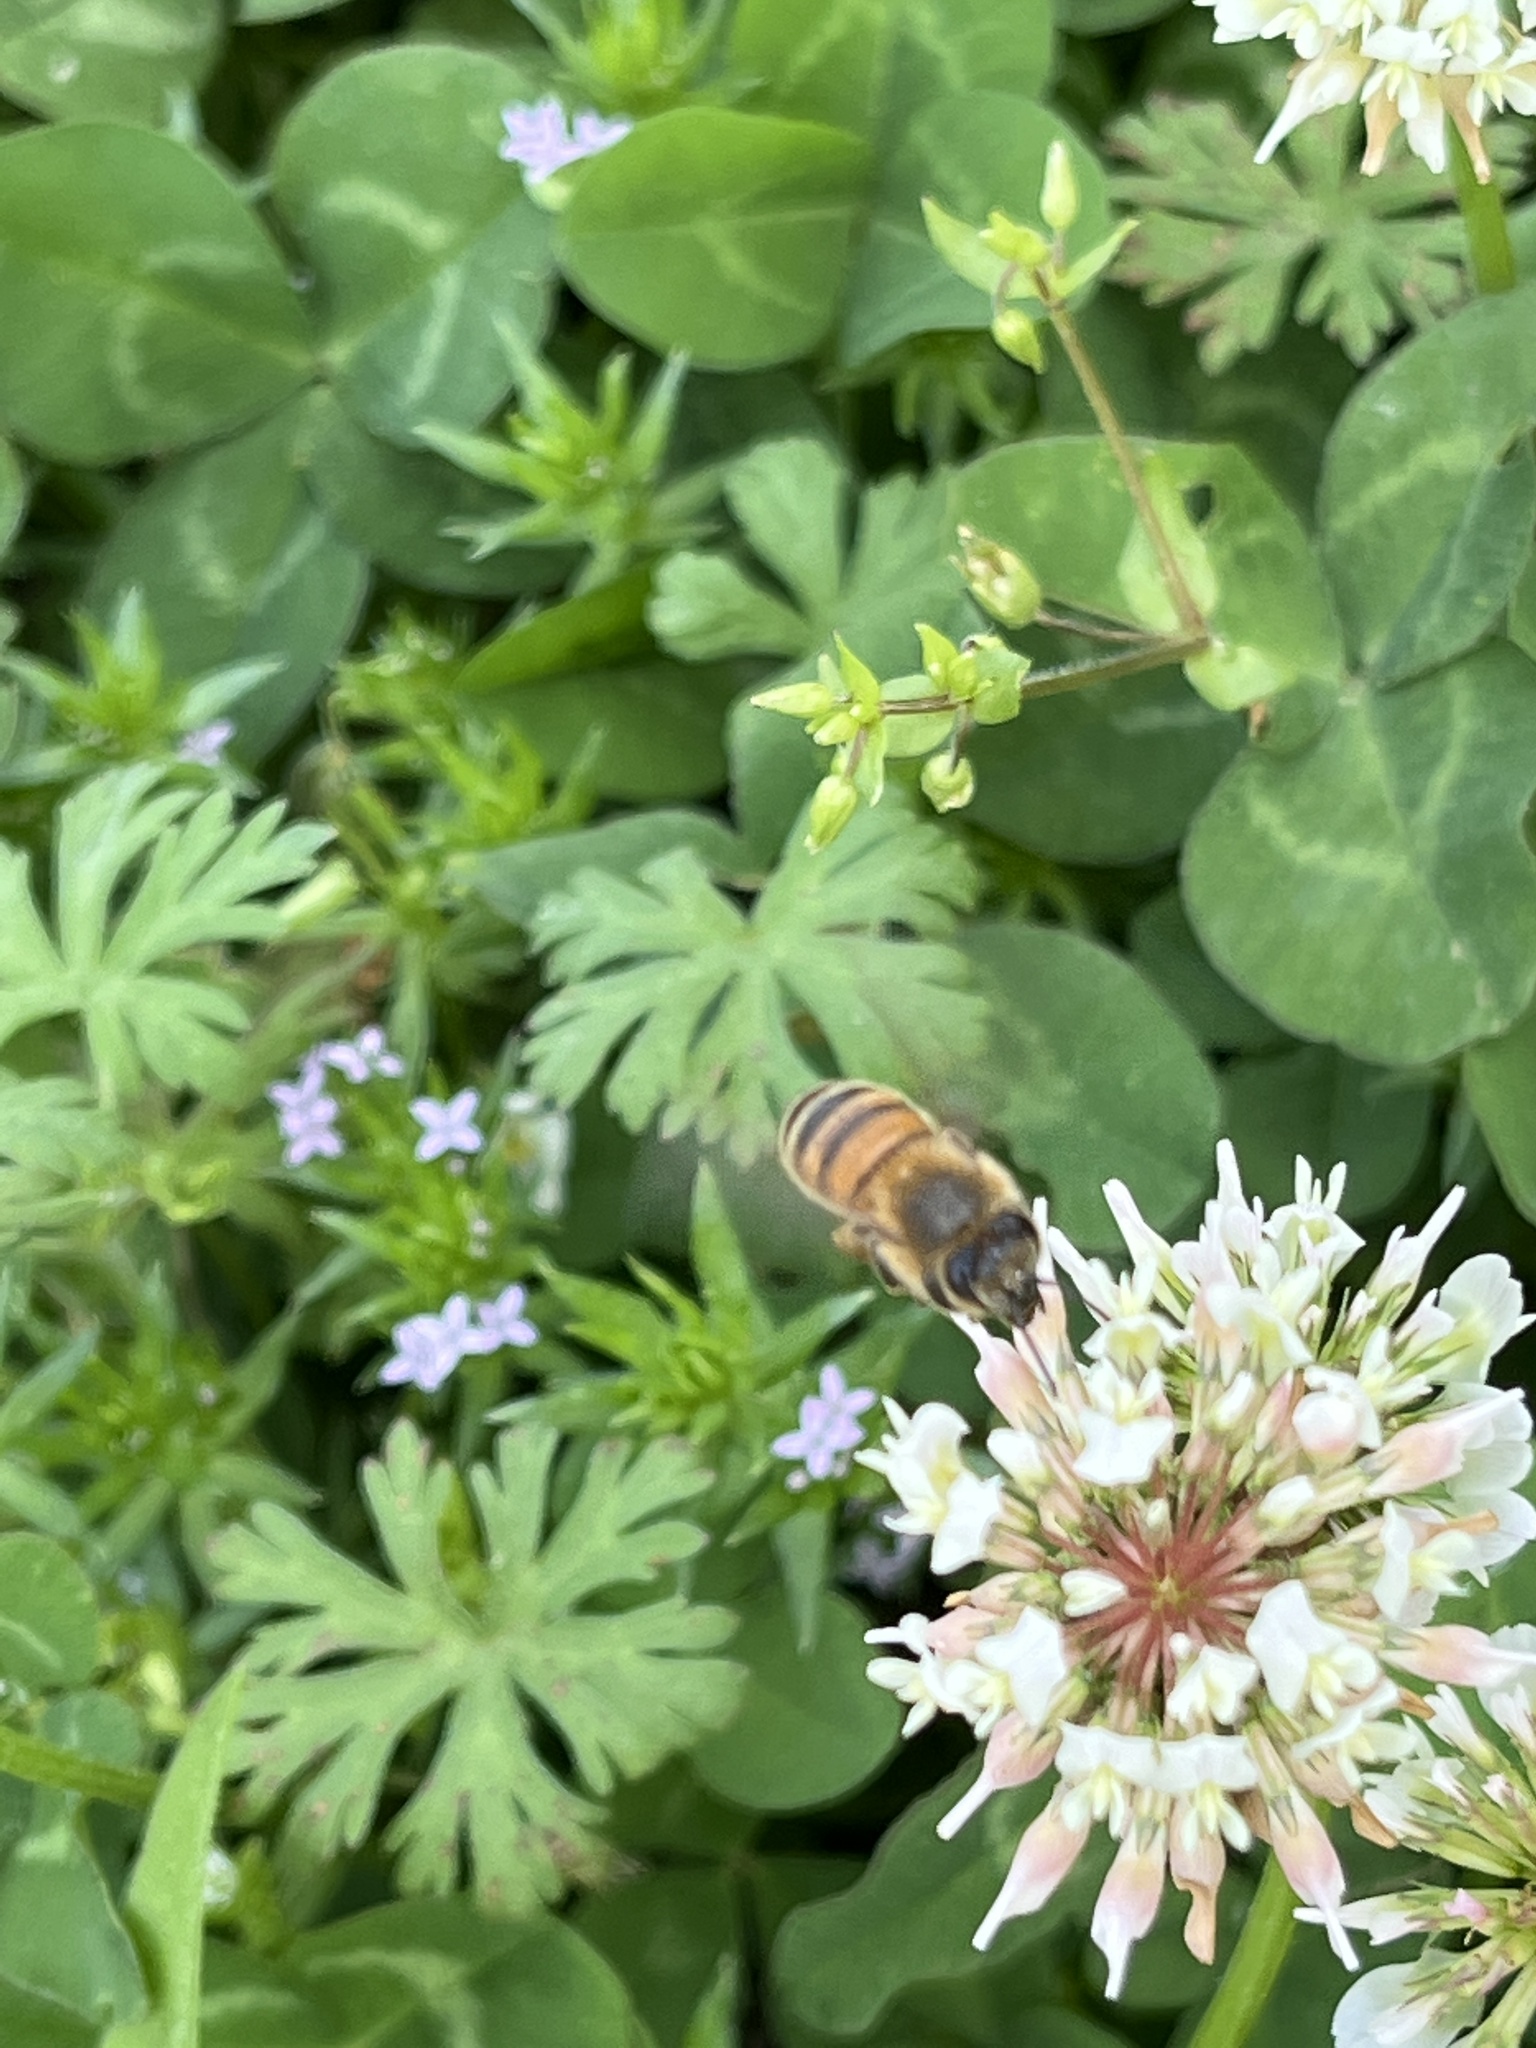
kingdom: Animalia
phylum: Arthropoda
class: Insecta
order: Hymenoptera
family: Apidae
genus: Apis
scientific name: Apis mellifera
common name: Honey bee
